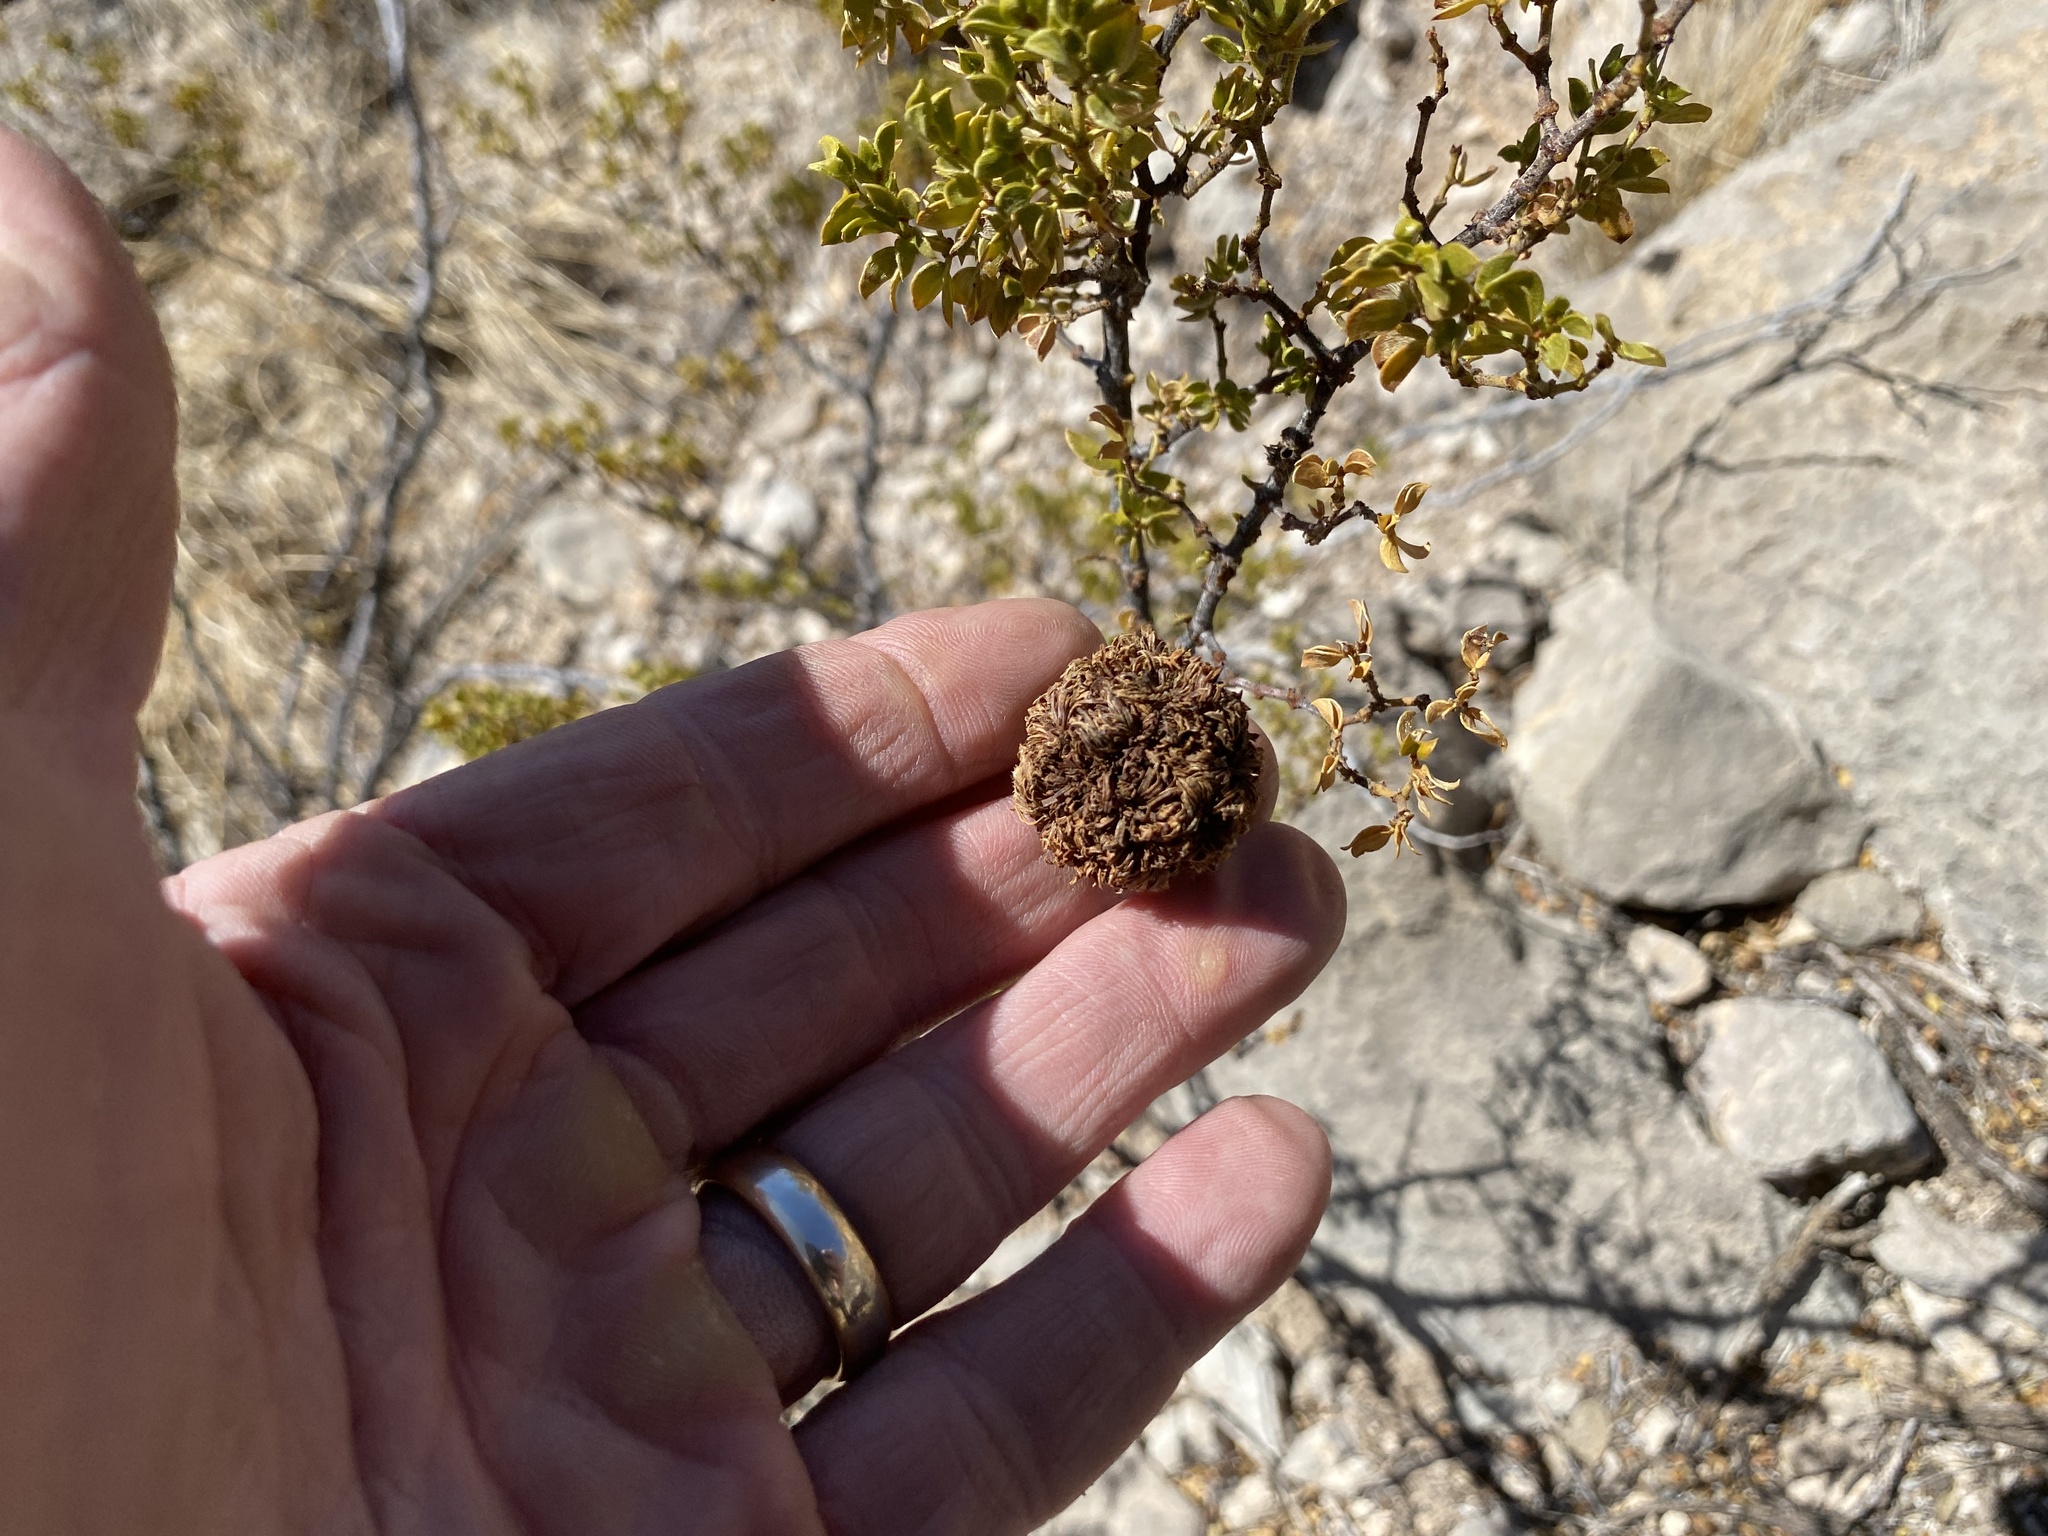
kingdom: Animalia
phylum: Arthropoda
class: Insecta
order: Diptera
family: Cecidomyiidae
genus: Asphondylia
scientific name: Asphondylia auripila
